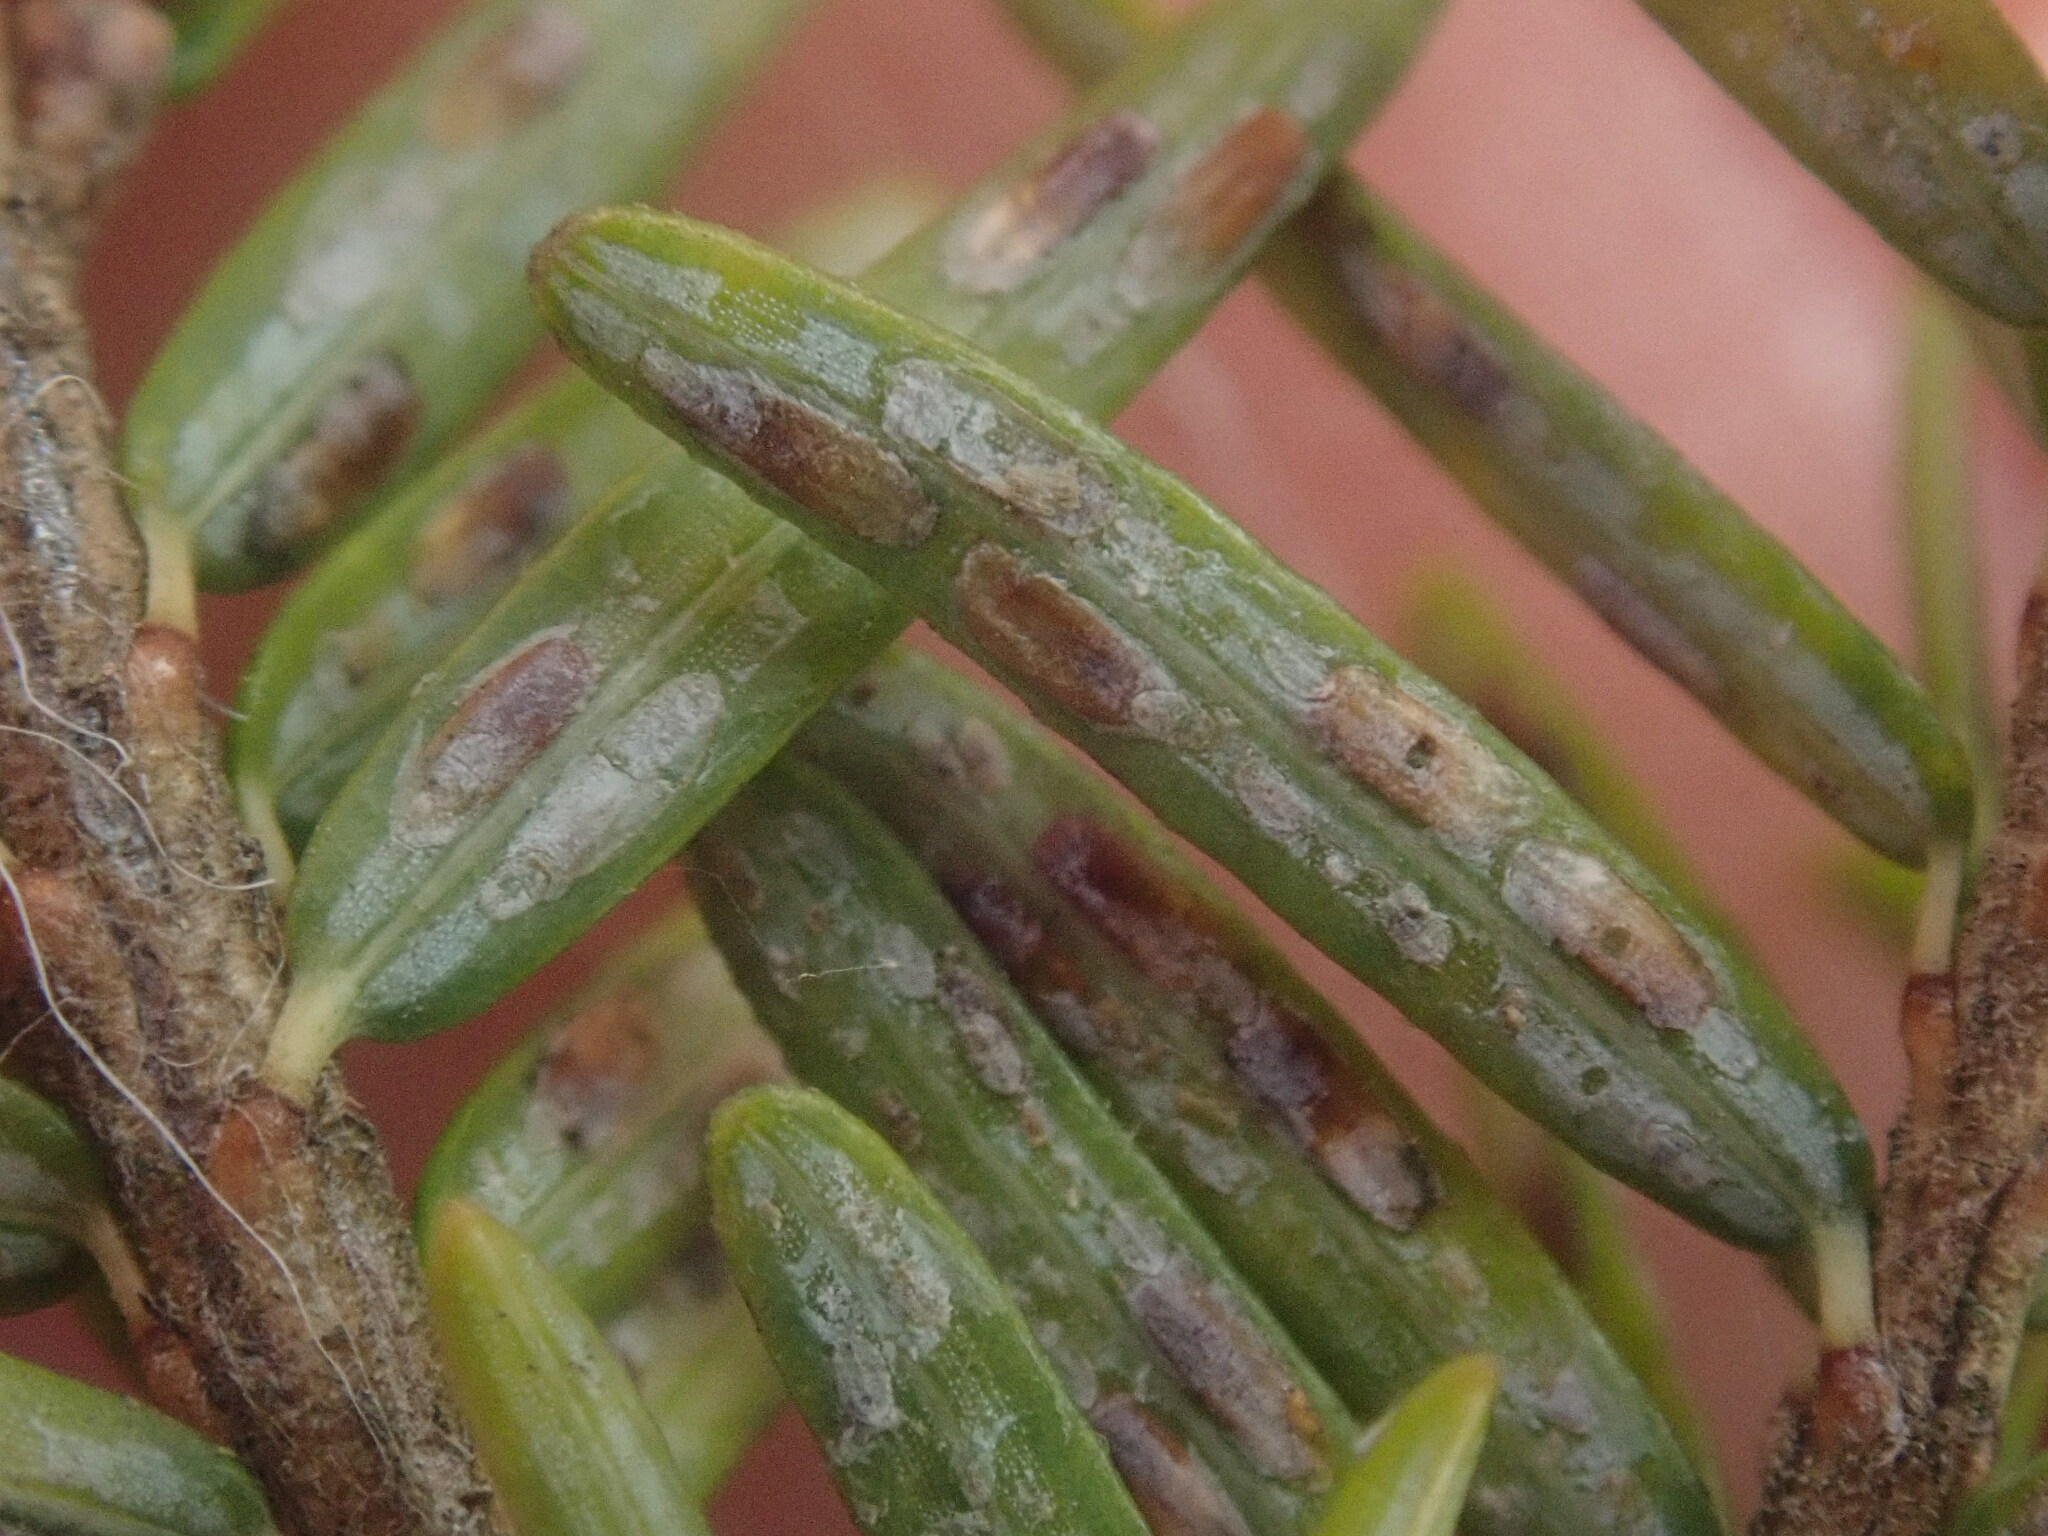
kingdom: Animalia
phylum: Arthropoda
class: Insecta
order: Hemiptera
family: Diaspididae
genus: Fiorinia
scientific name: Fiorinia externa
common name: Elongate hemlock scale
